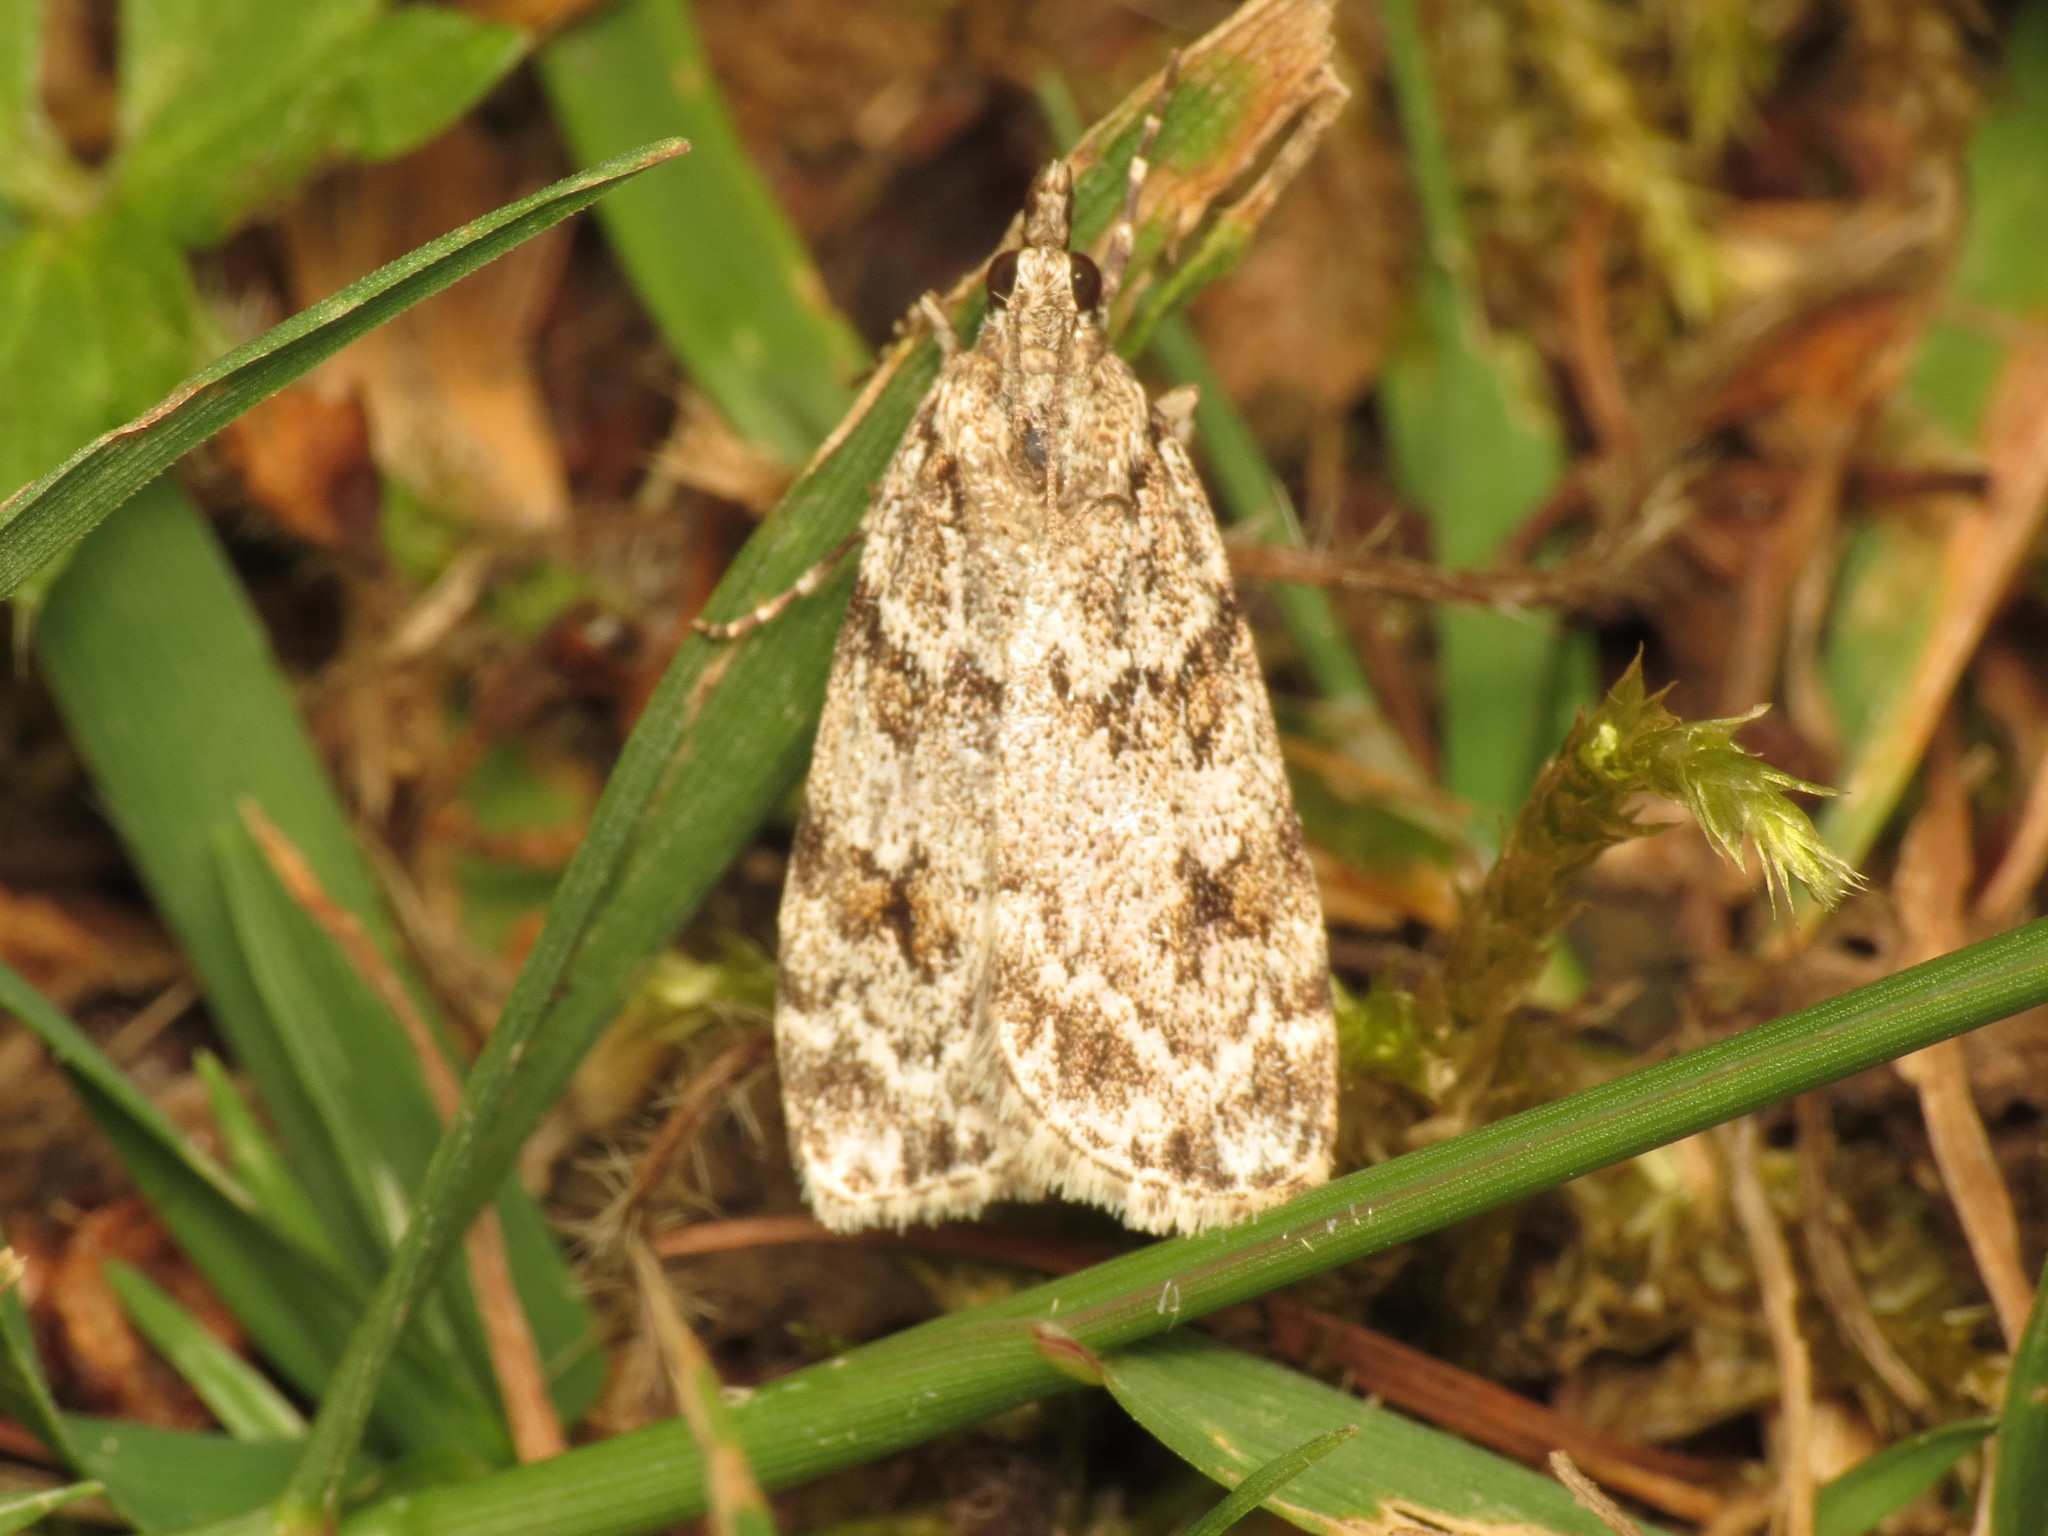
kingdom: Animalia
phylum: Arthropoda
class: Insecta
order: Lepidoptera
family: Crambidae
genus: Scoparia
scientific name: Scoparia pyralella
